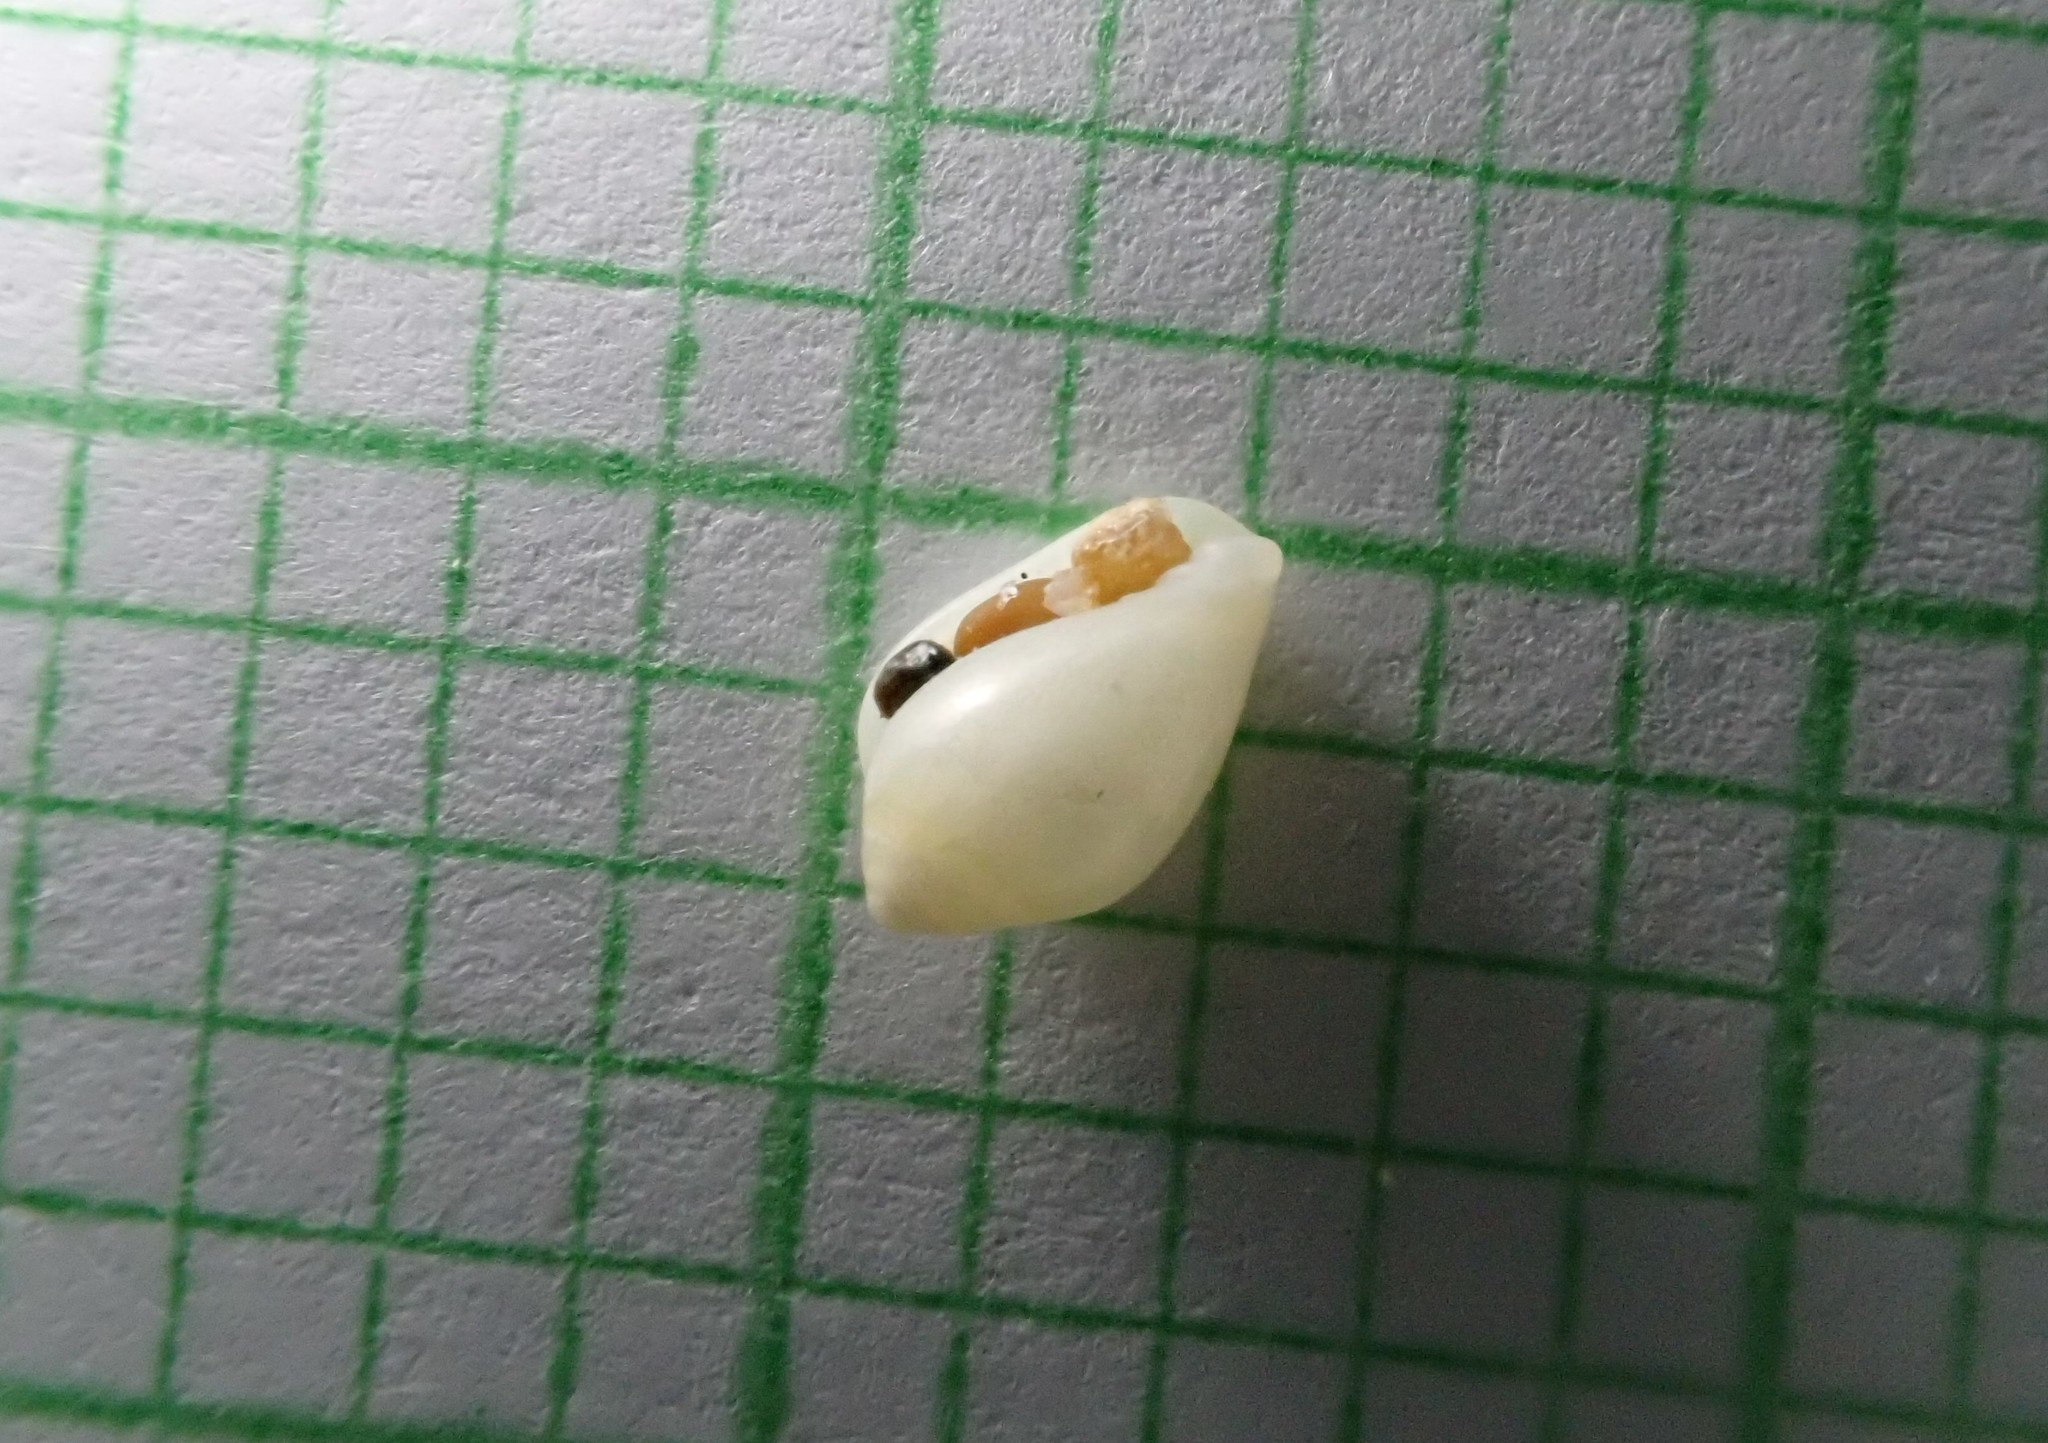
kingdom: Animalia
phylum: Mollusca
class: Gastropoda
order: Neogastropoda
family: Marginellidae
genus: Mesoginella
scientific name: Mesoginella koma
